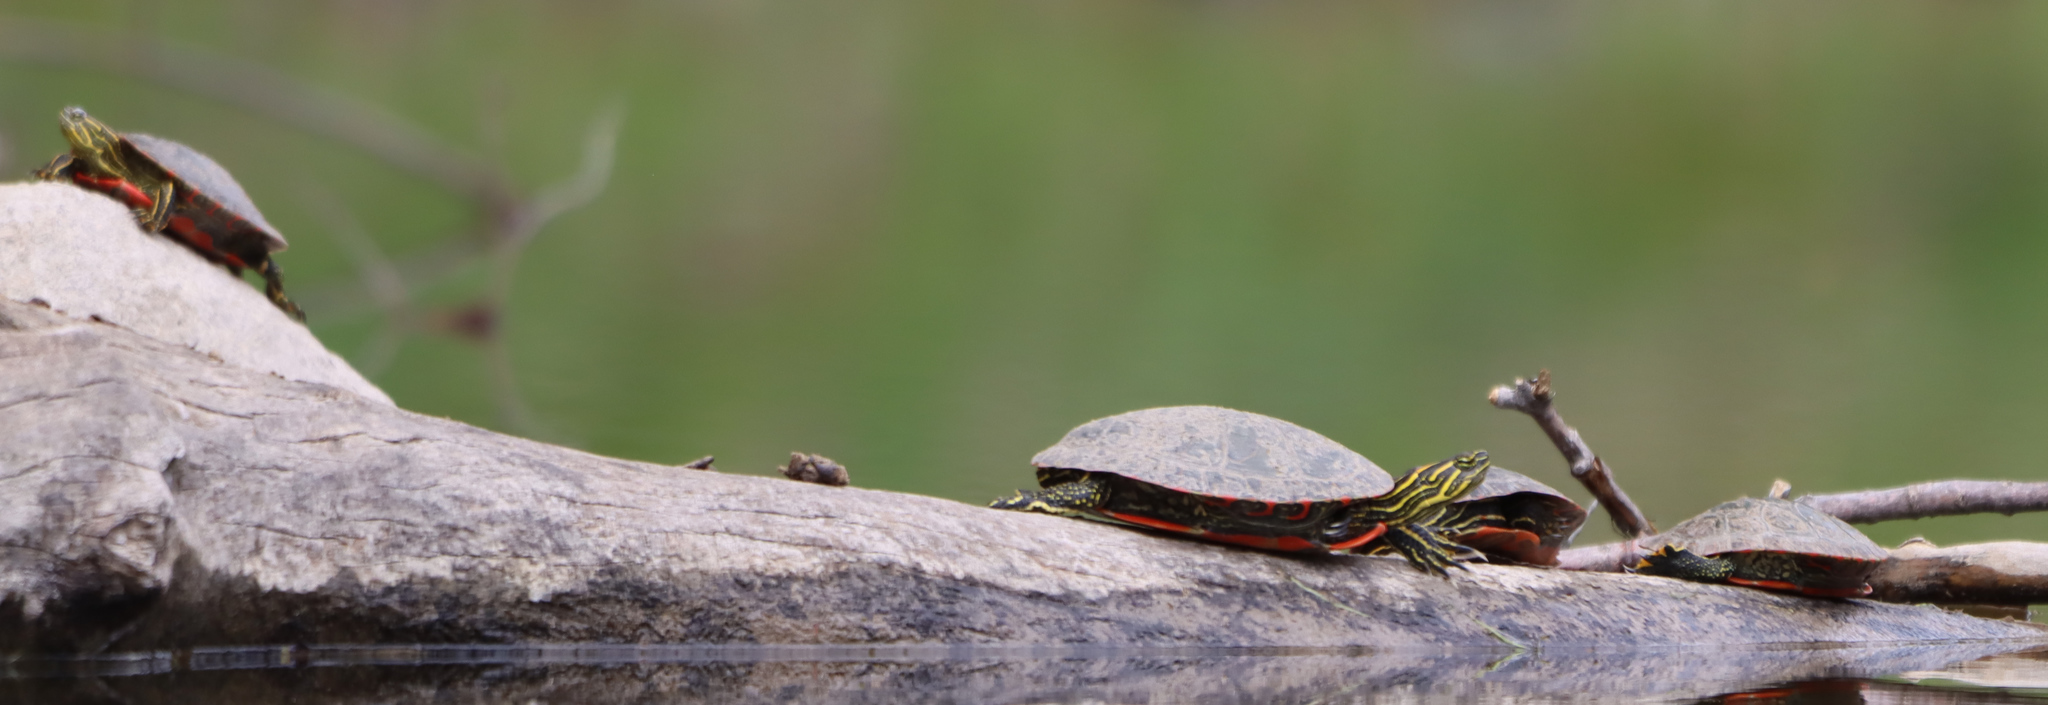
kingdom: Animalia
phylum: Chordata
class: Testudines
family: Emydidae
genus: Chrysemys
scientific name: Chrysemys picta
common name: Painted turtle
